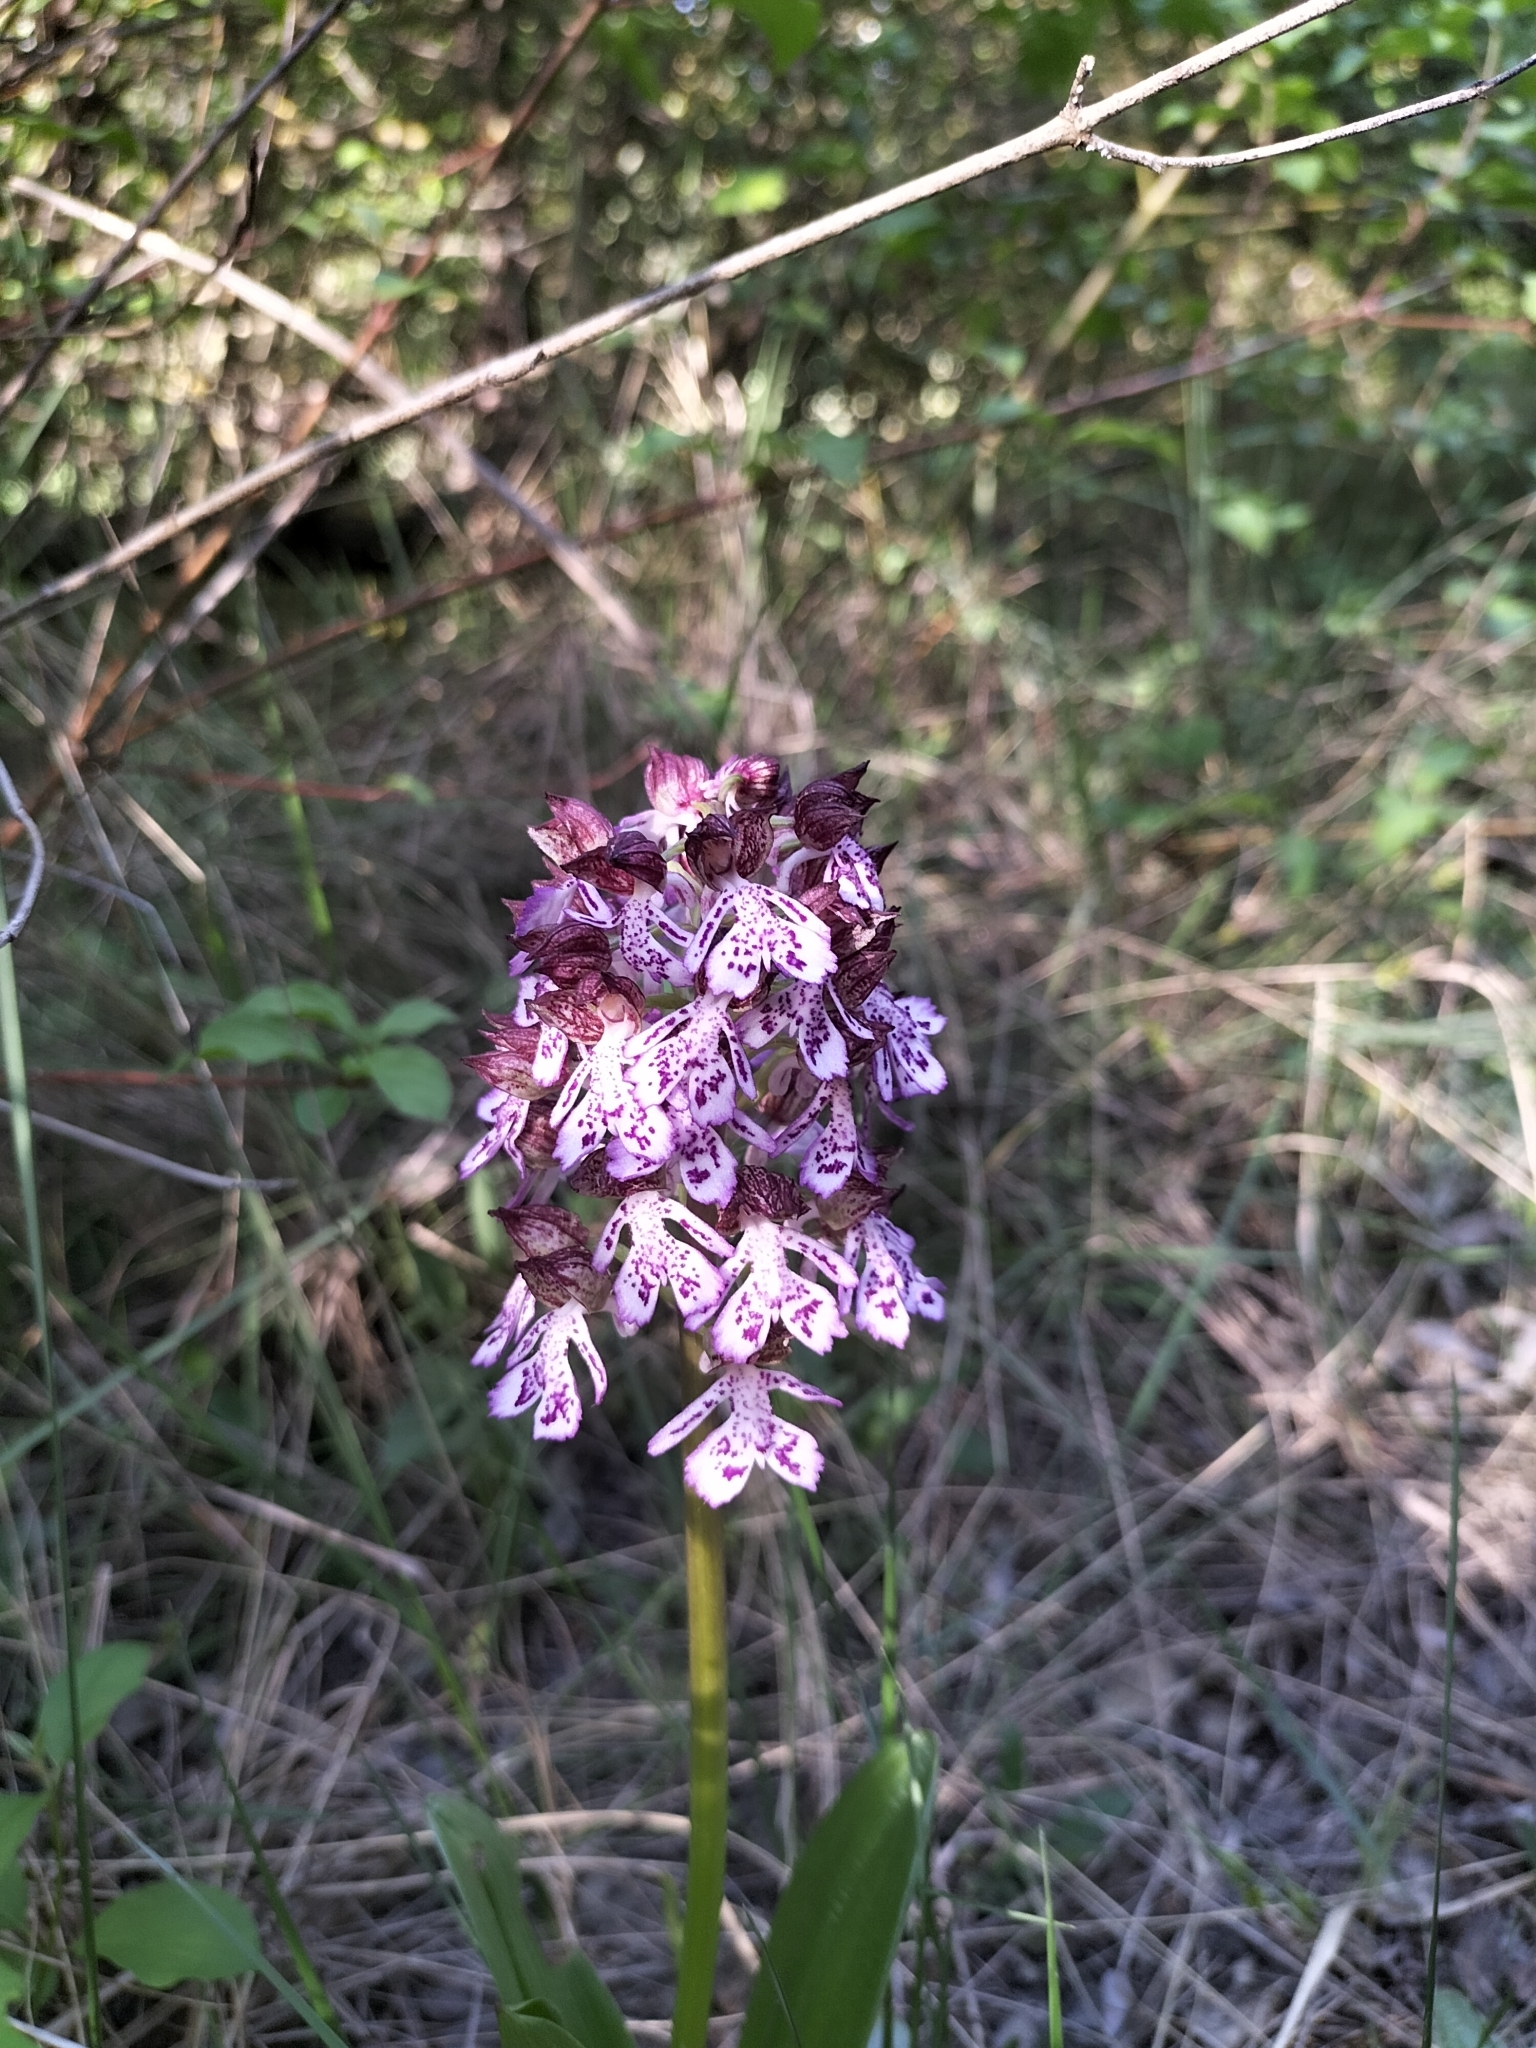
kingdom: Plantae
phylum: Tracheophyta
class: Liliopsida
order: Asparagales
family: Orchidaceae
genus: Orchis
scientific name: Orchis purpurea
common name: Lady orchid
